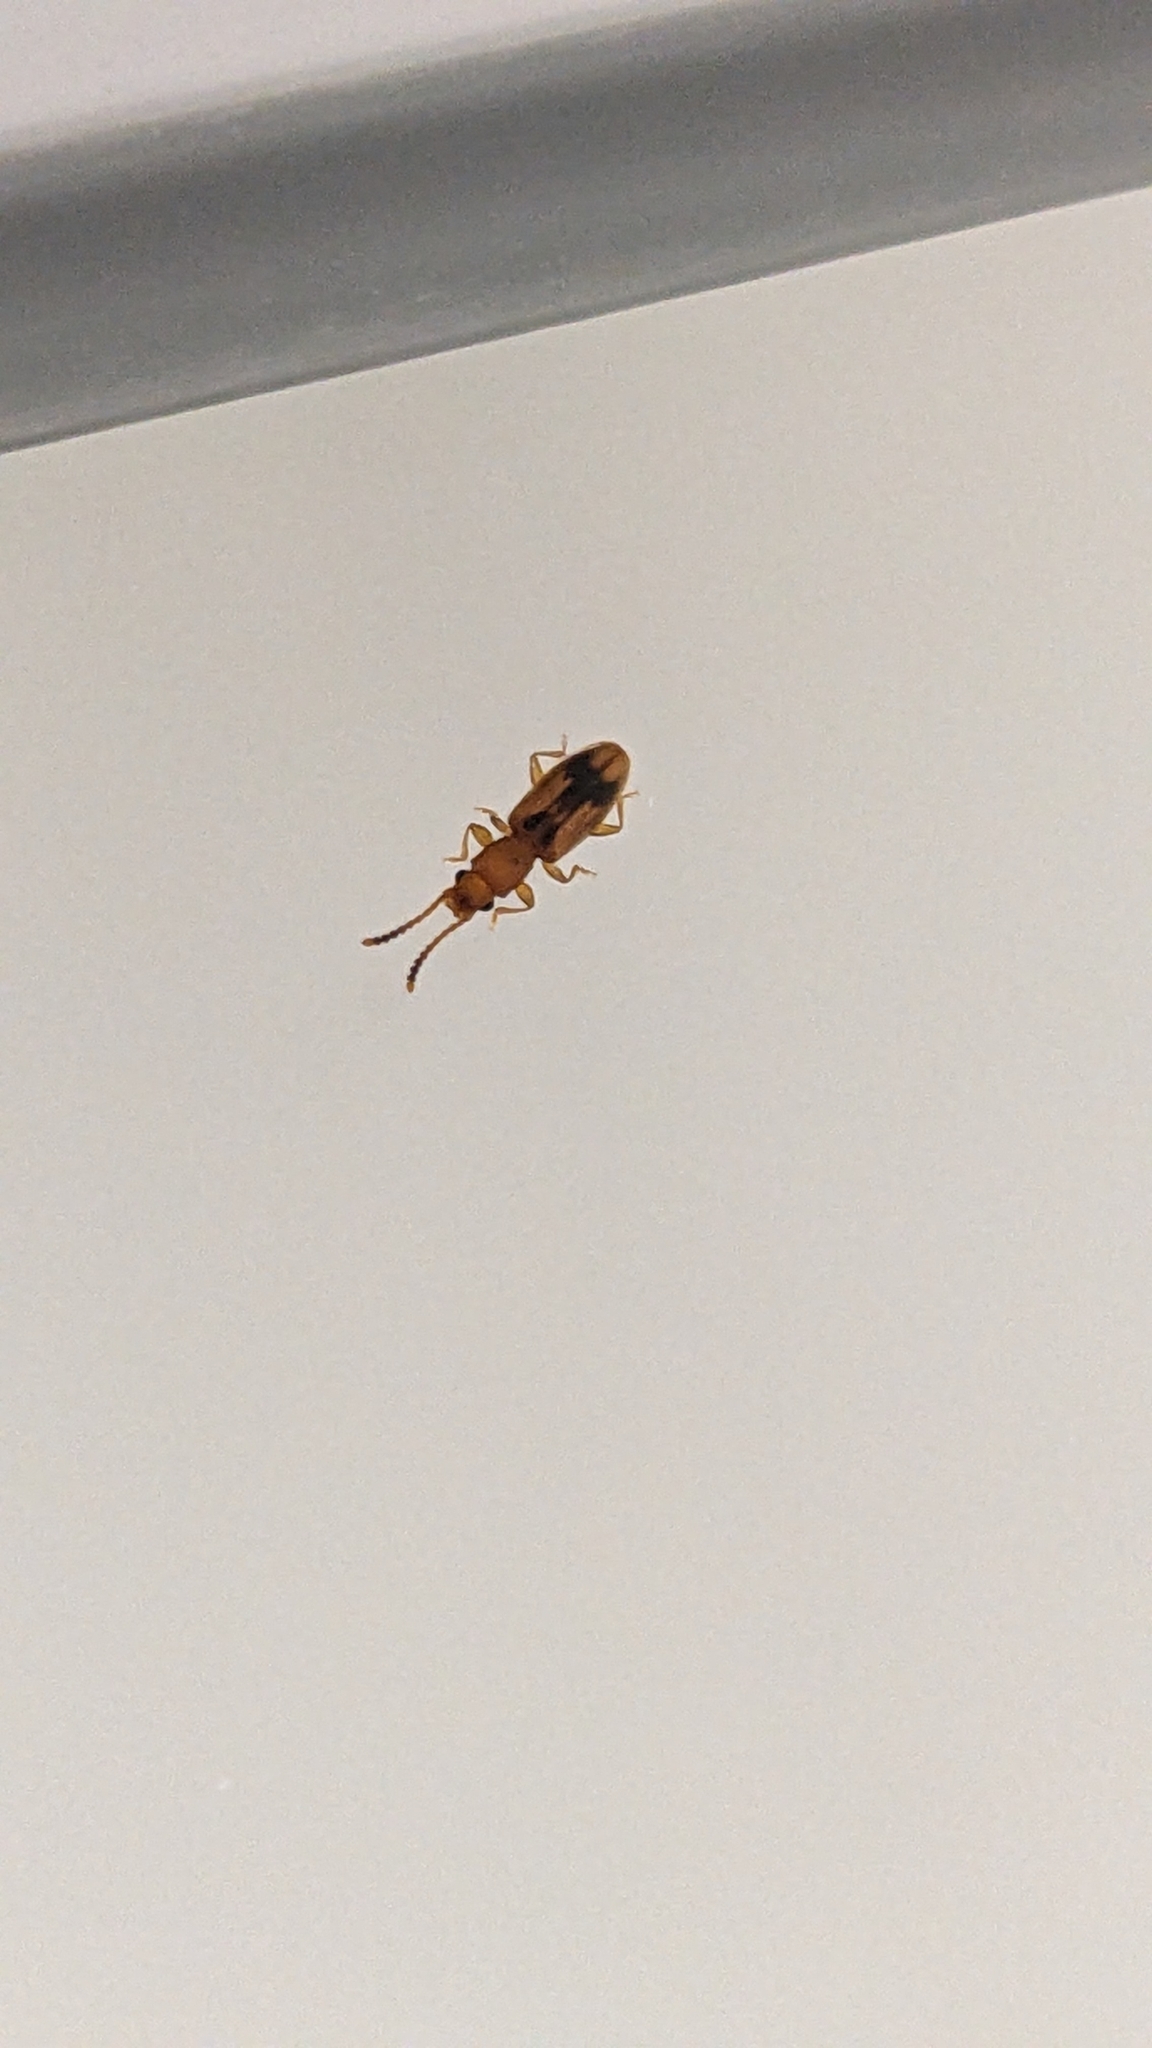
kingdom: Animalia
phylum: Arthropoda
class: Insecta
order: Coleoptera
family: Silvanidae
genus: Cryptamorpha
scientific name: Cryptamorpha desjardinsi
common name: Cryptamorpha
